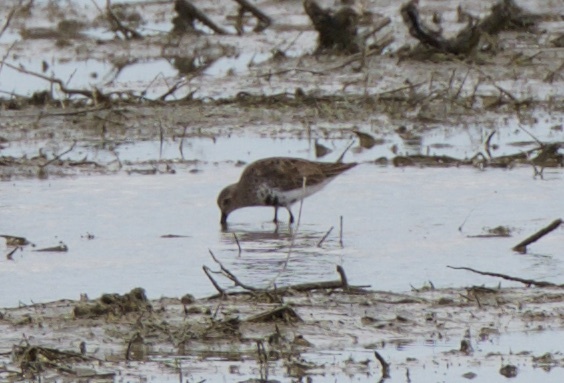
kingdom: Animalia
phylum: Chordata
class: Aves
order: Charadriiformes
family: Scolopacidae
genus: Calidris
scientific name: Calidris alpina
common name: Dunlin
